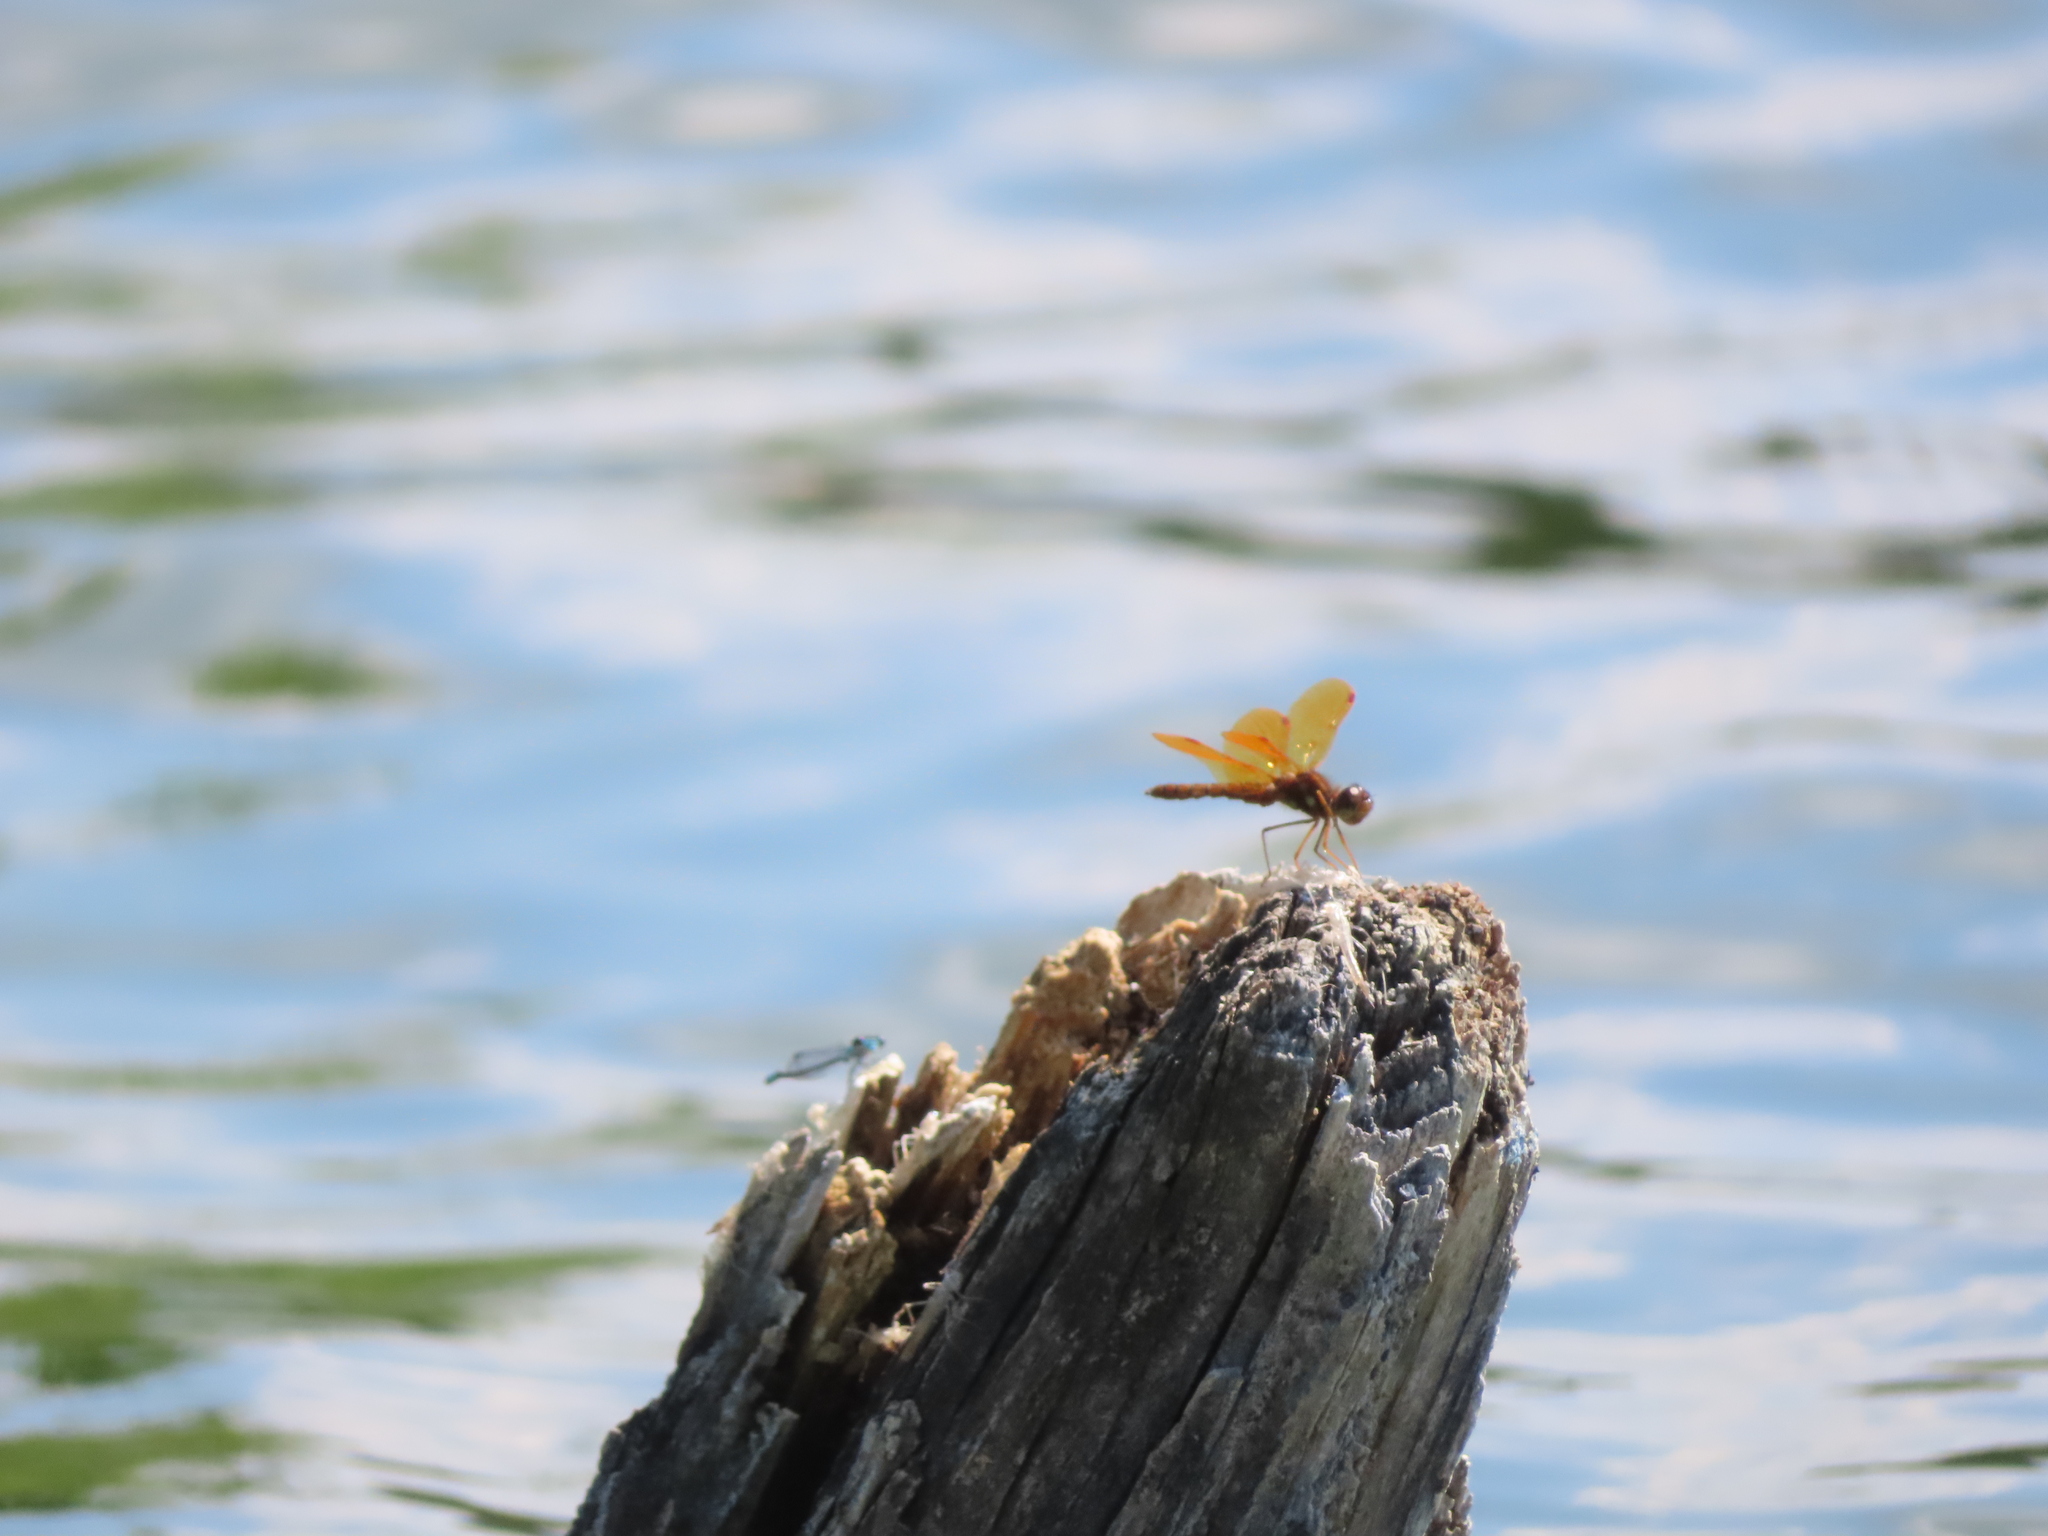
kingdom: Animalia
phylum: Arthropoda
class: Insecta
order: Odonata
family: Libellulidae
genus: Perithemis
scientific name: Perithemis tenera
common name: Eastern amberwing
